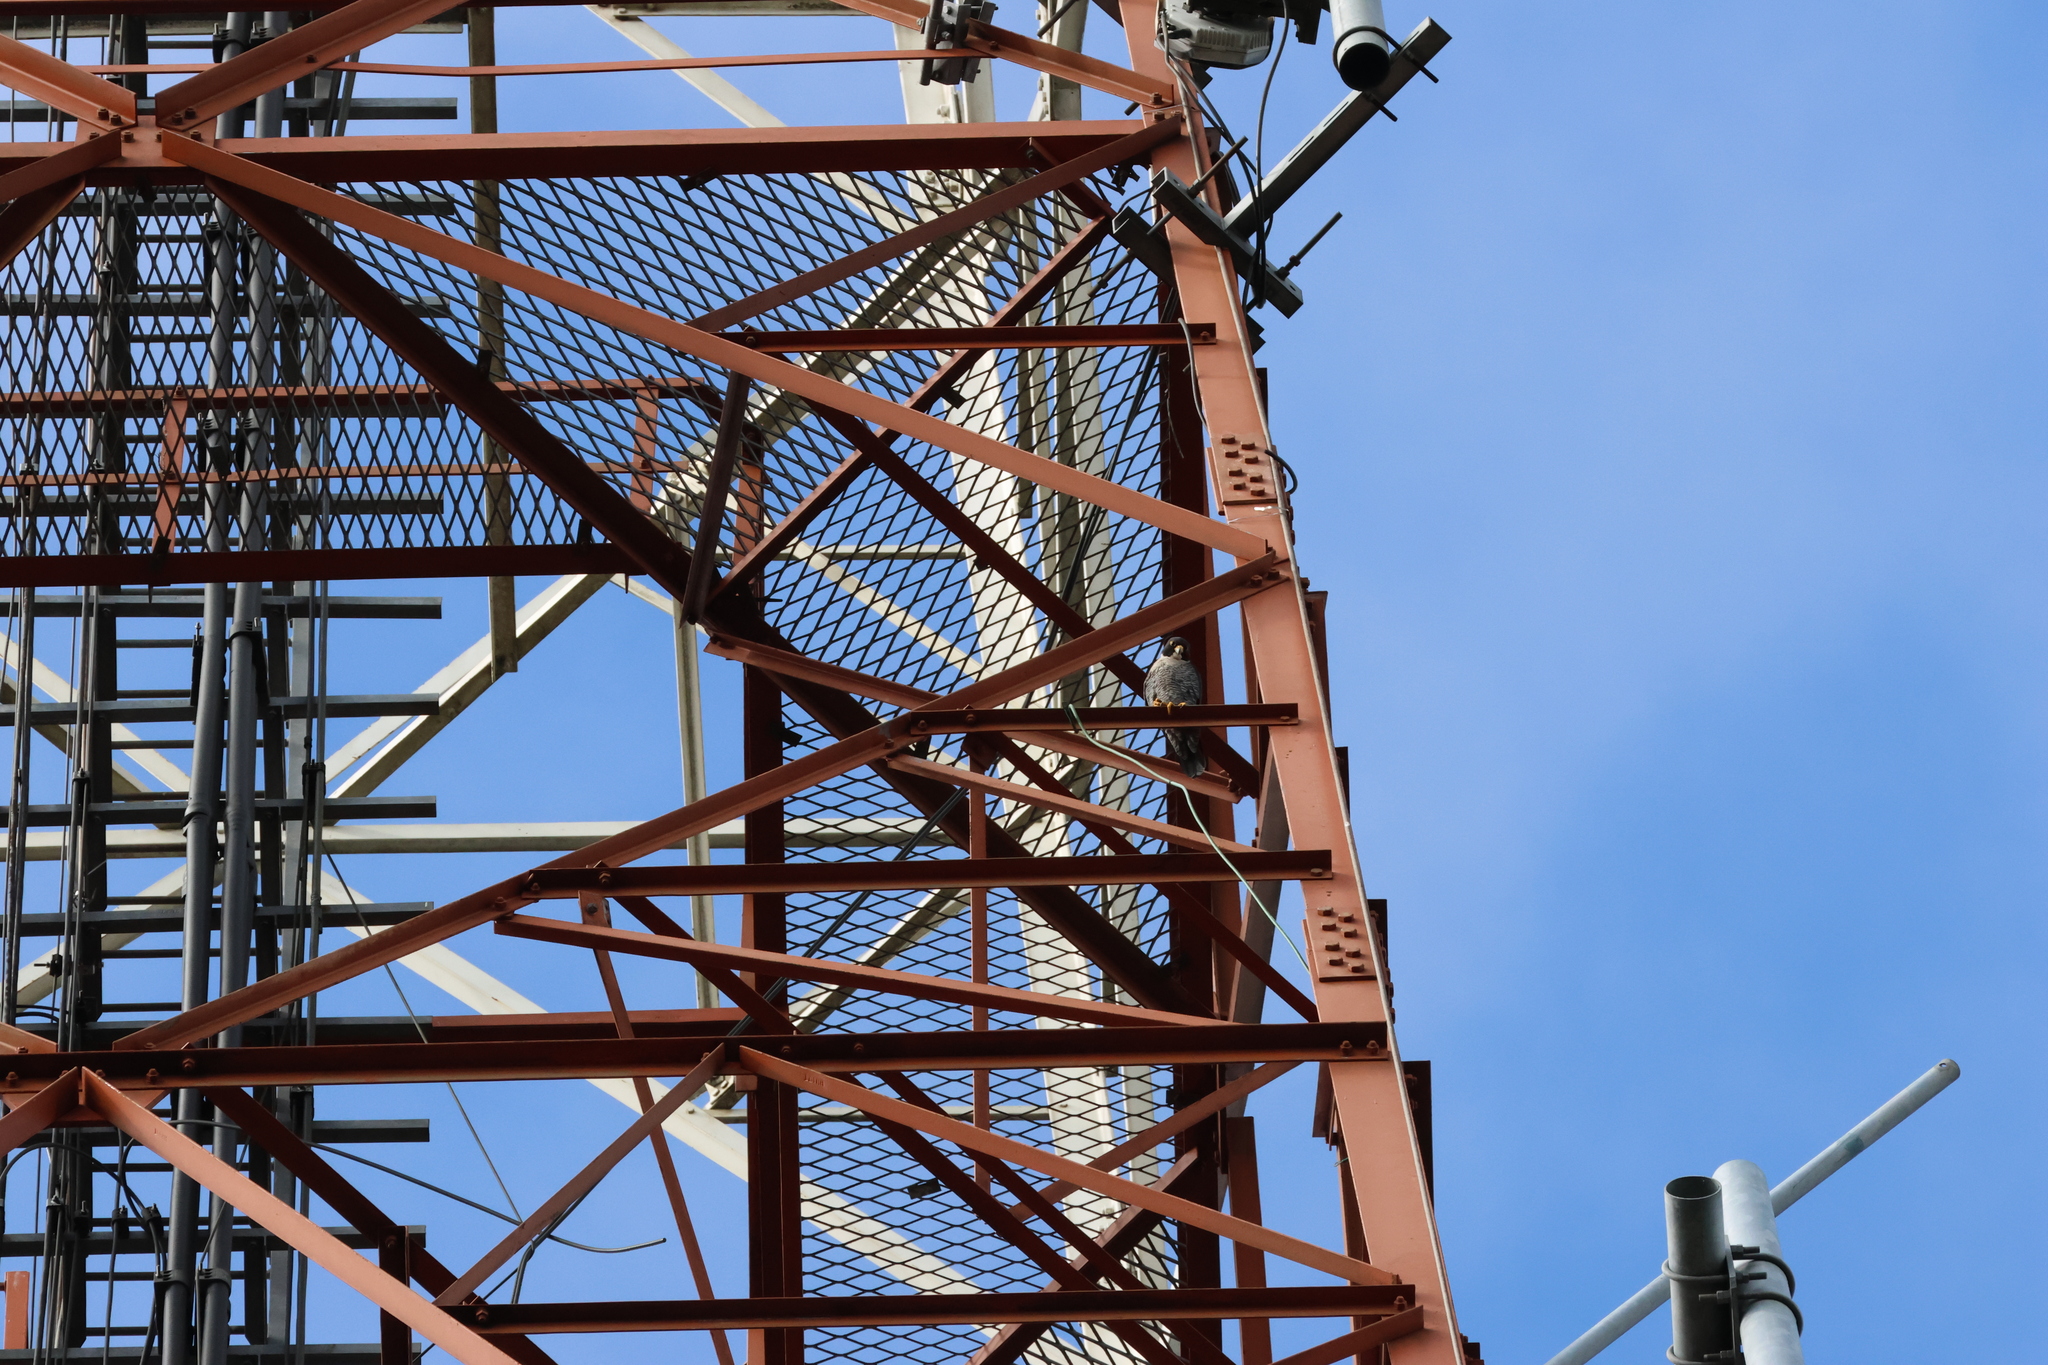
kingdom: Animalia
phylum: Chordata
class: Aves
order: Falconiformes
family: Falconidae
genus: Falco
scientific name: Falco peregrinus
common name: Peregrine falcon
